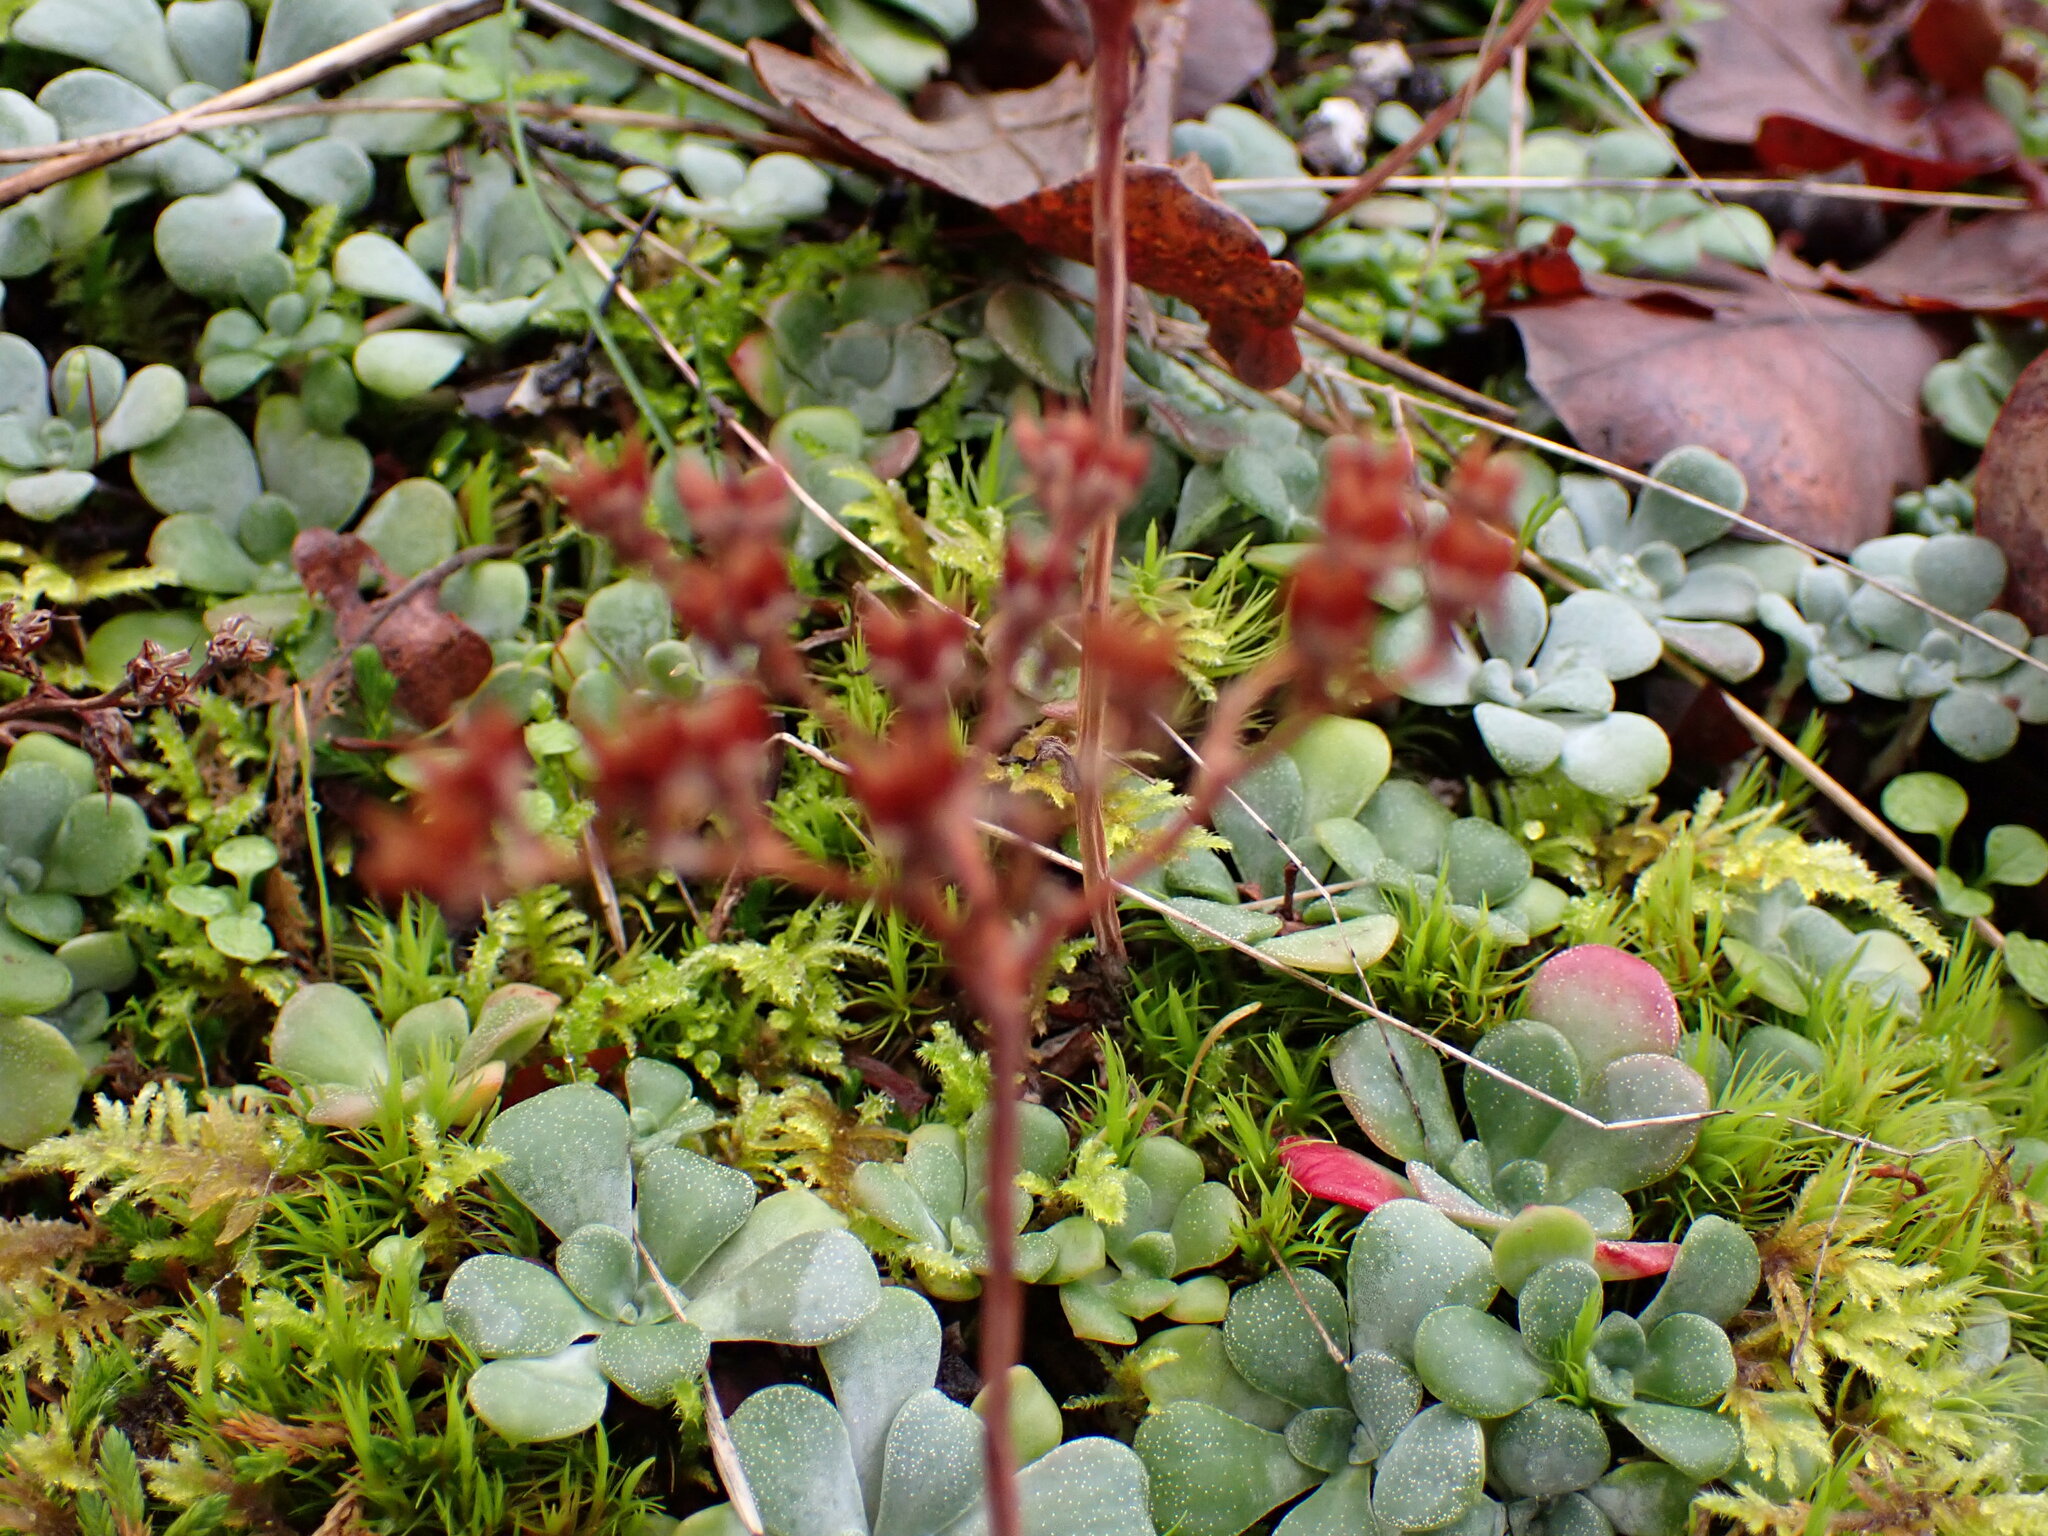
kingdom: Plantae
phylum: Tracheophyta
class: Magnoliopsida
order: Saxifragales
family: Crassulaceae
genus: Sedum
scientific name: Sedum spathulifolium
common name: Colorado stonecrop
